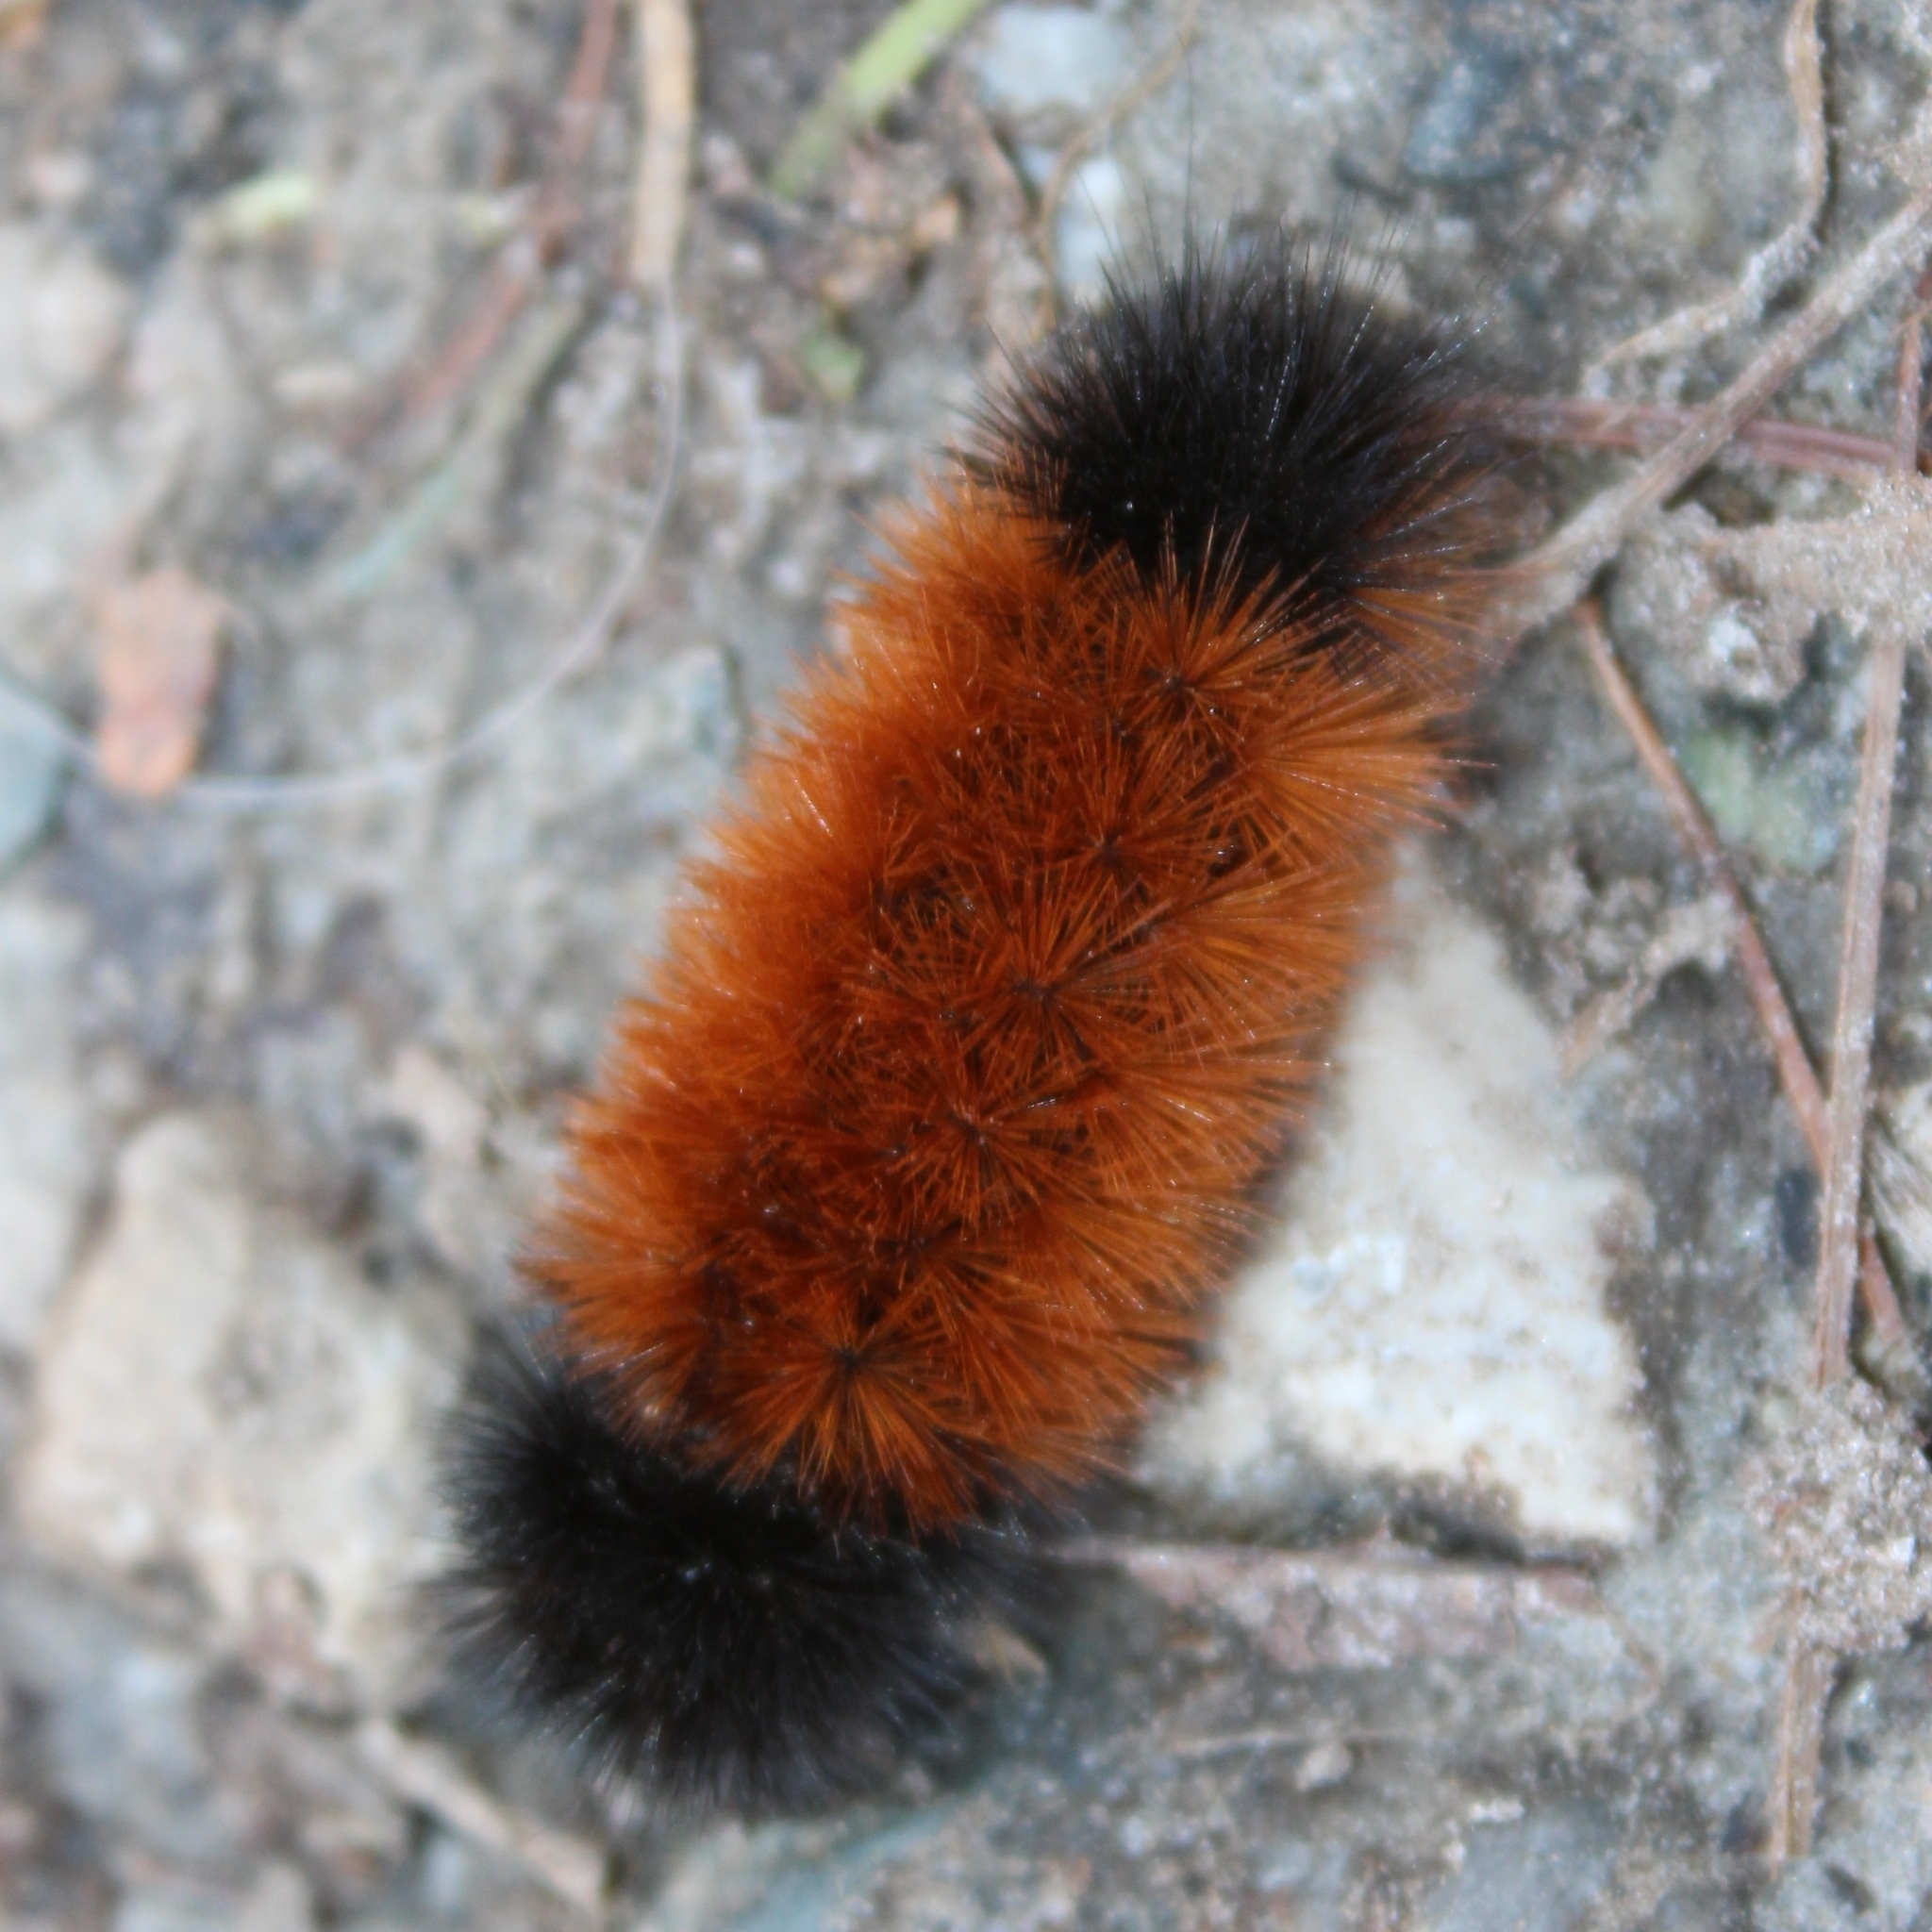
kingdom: Animalia
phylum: Arthropoda
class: Insecta
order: Lepidoptera
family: Erebidae
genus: Pyrrharctia
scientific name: Pyrrharctia isabella
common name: Isabella tiger moth
